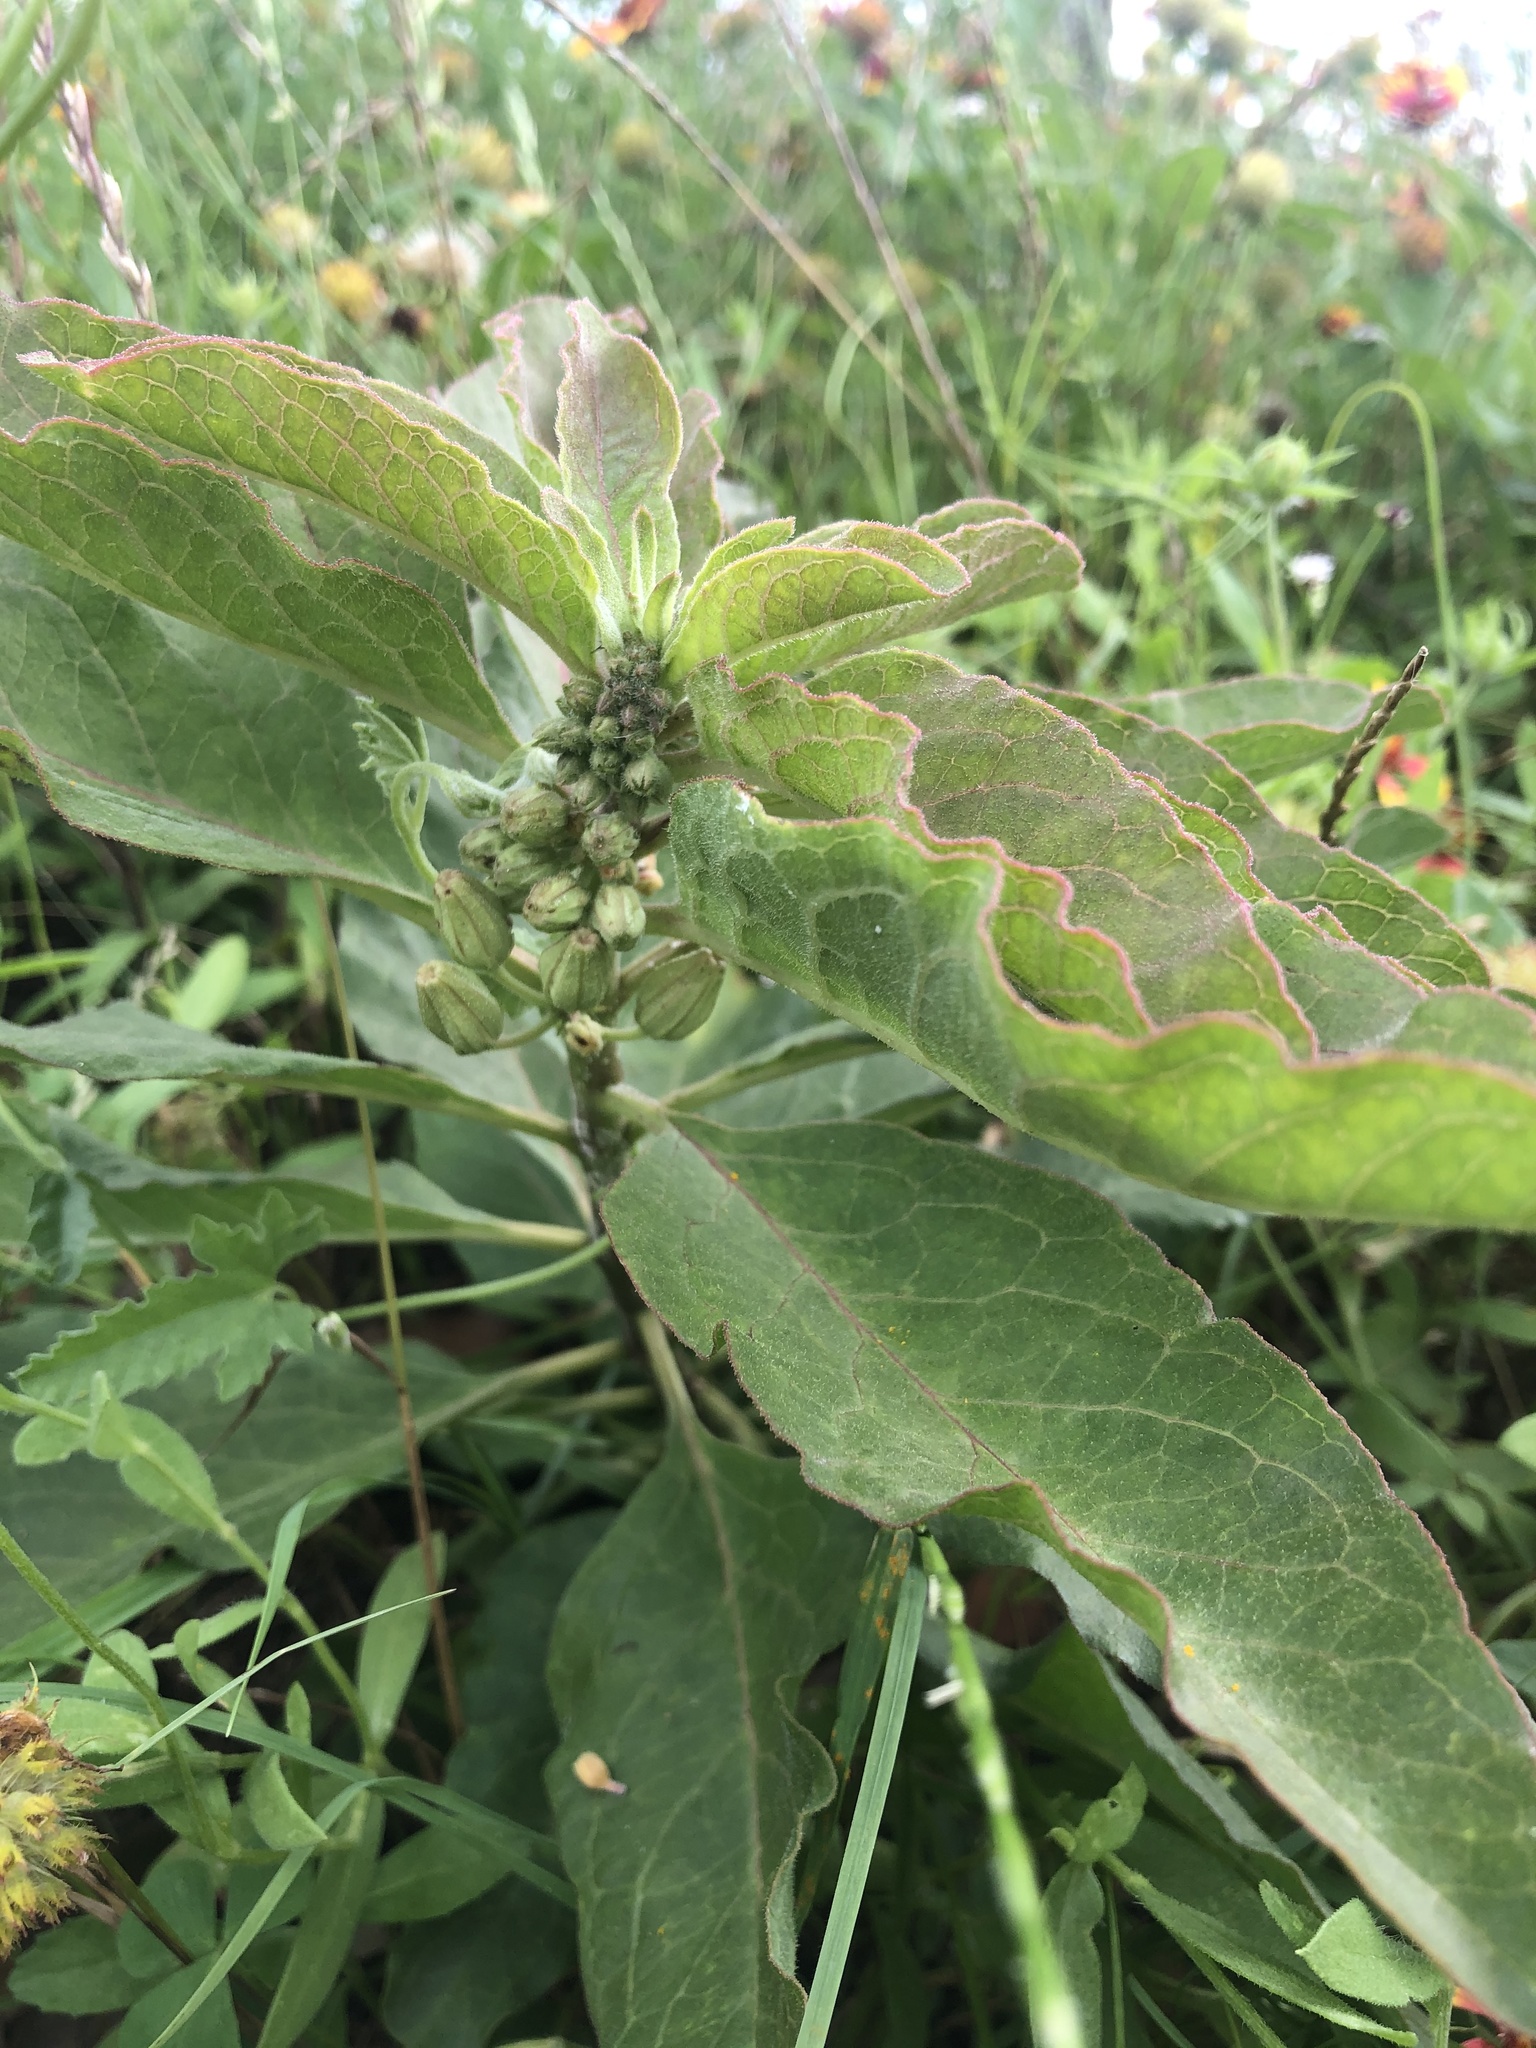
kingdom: Plantae
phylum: Tracheophyta
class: Magnoliopsida
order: Gentianales
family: Apocynaceae
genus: Asclepias
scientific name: Asclepias oenotheroides
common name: Zizotes milkweed
